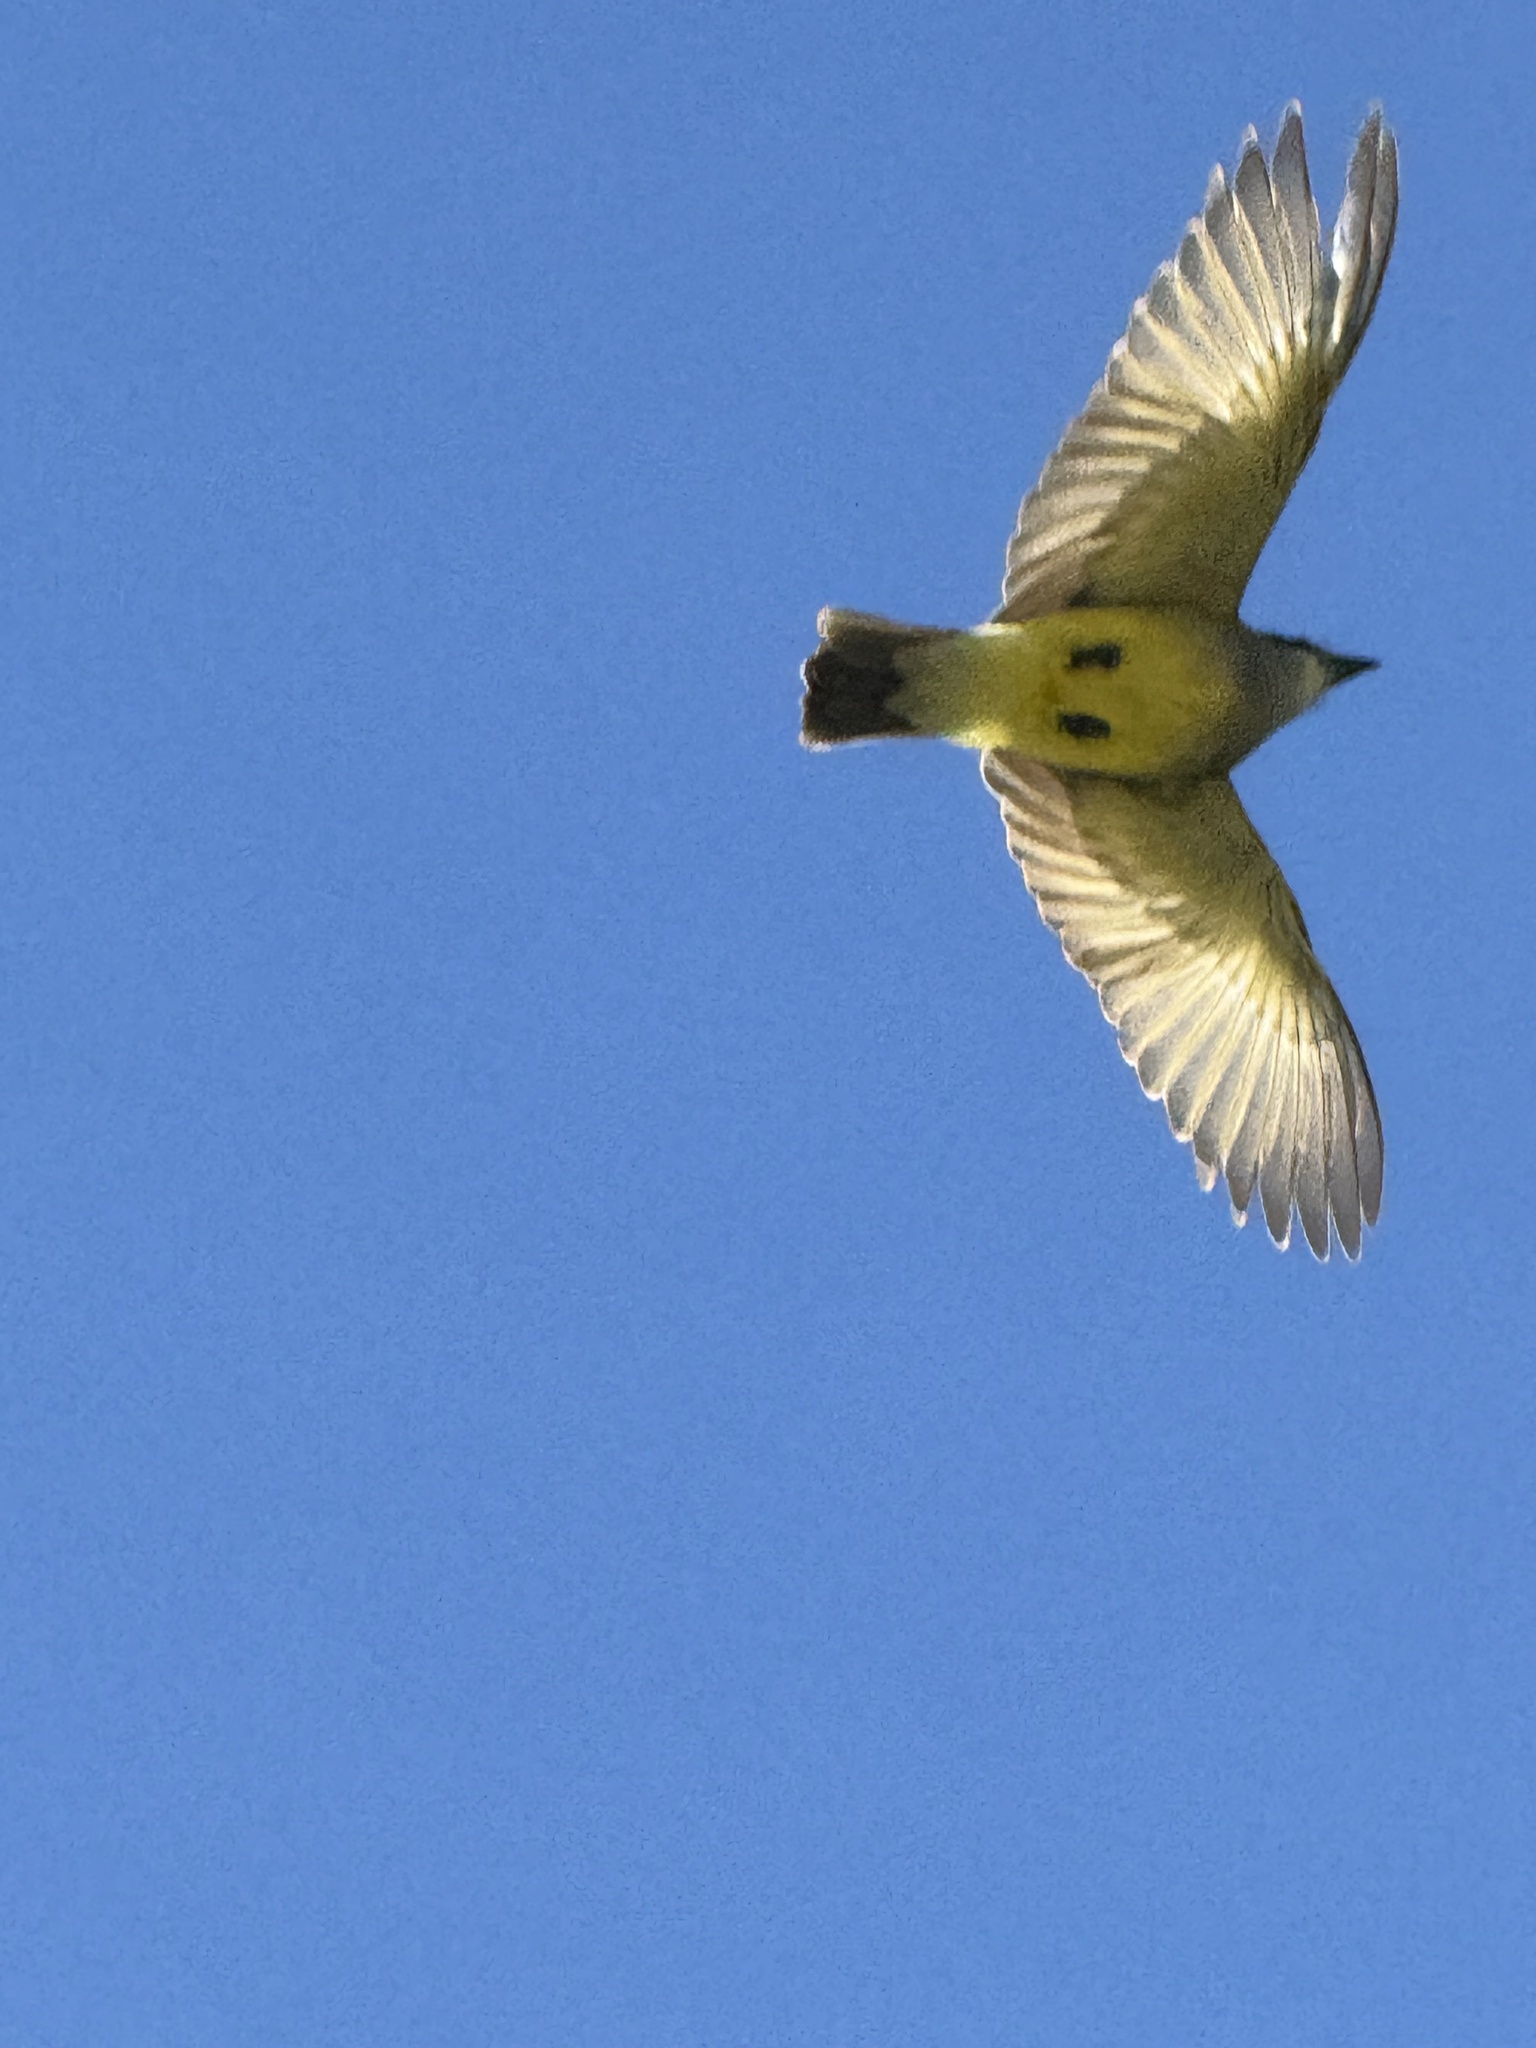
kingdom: Animalia
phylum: Chordata
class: Aves
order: Passeriformes
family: Tyrannidae
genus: Tyrannus
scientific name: Tyrannus vociferans
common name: Cassin's kingbird
